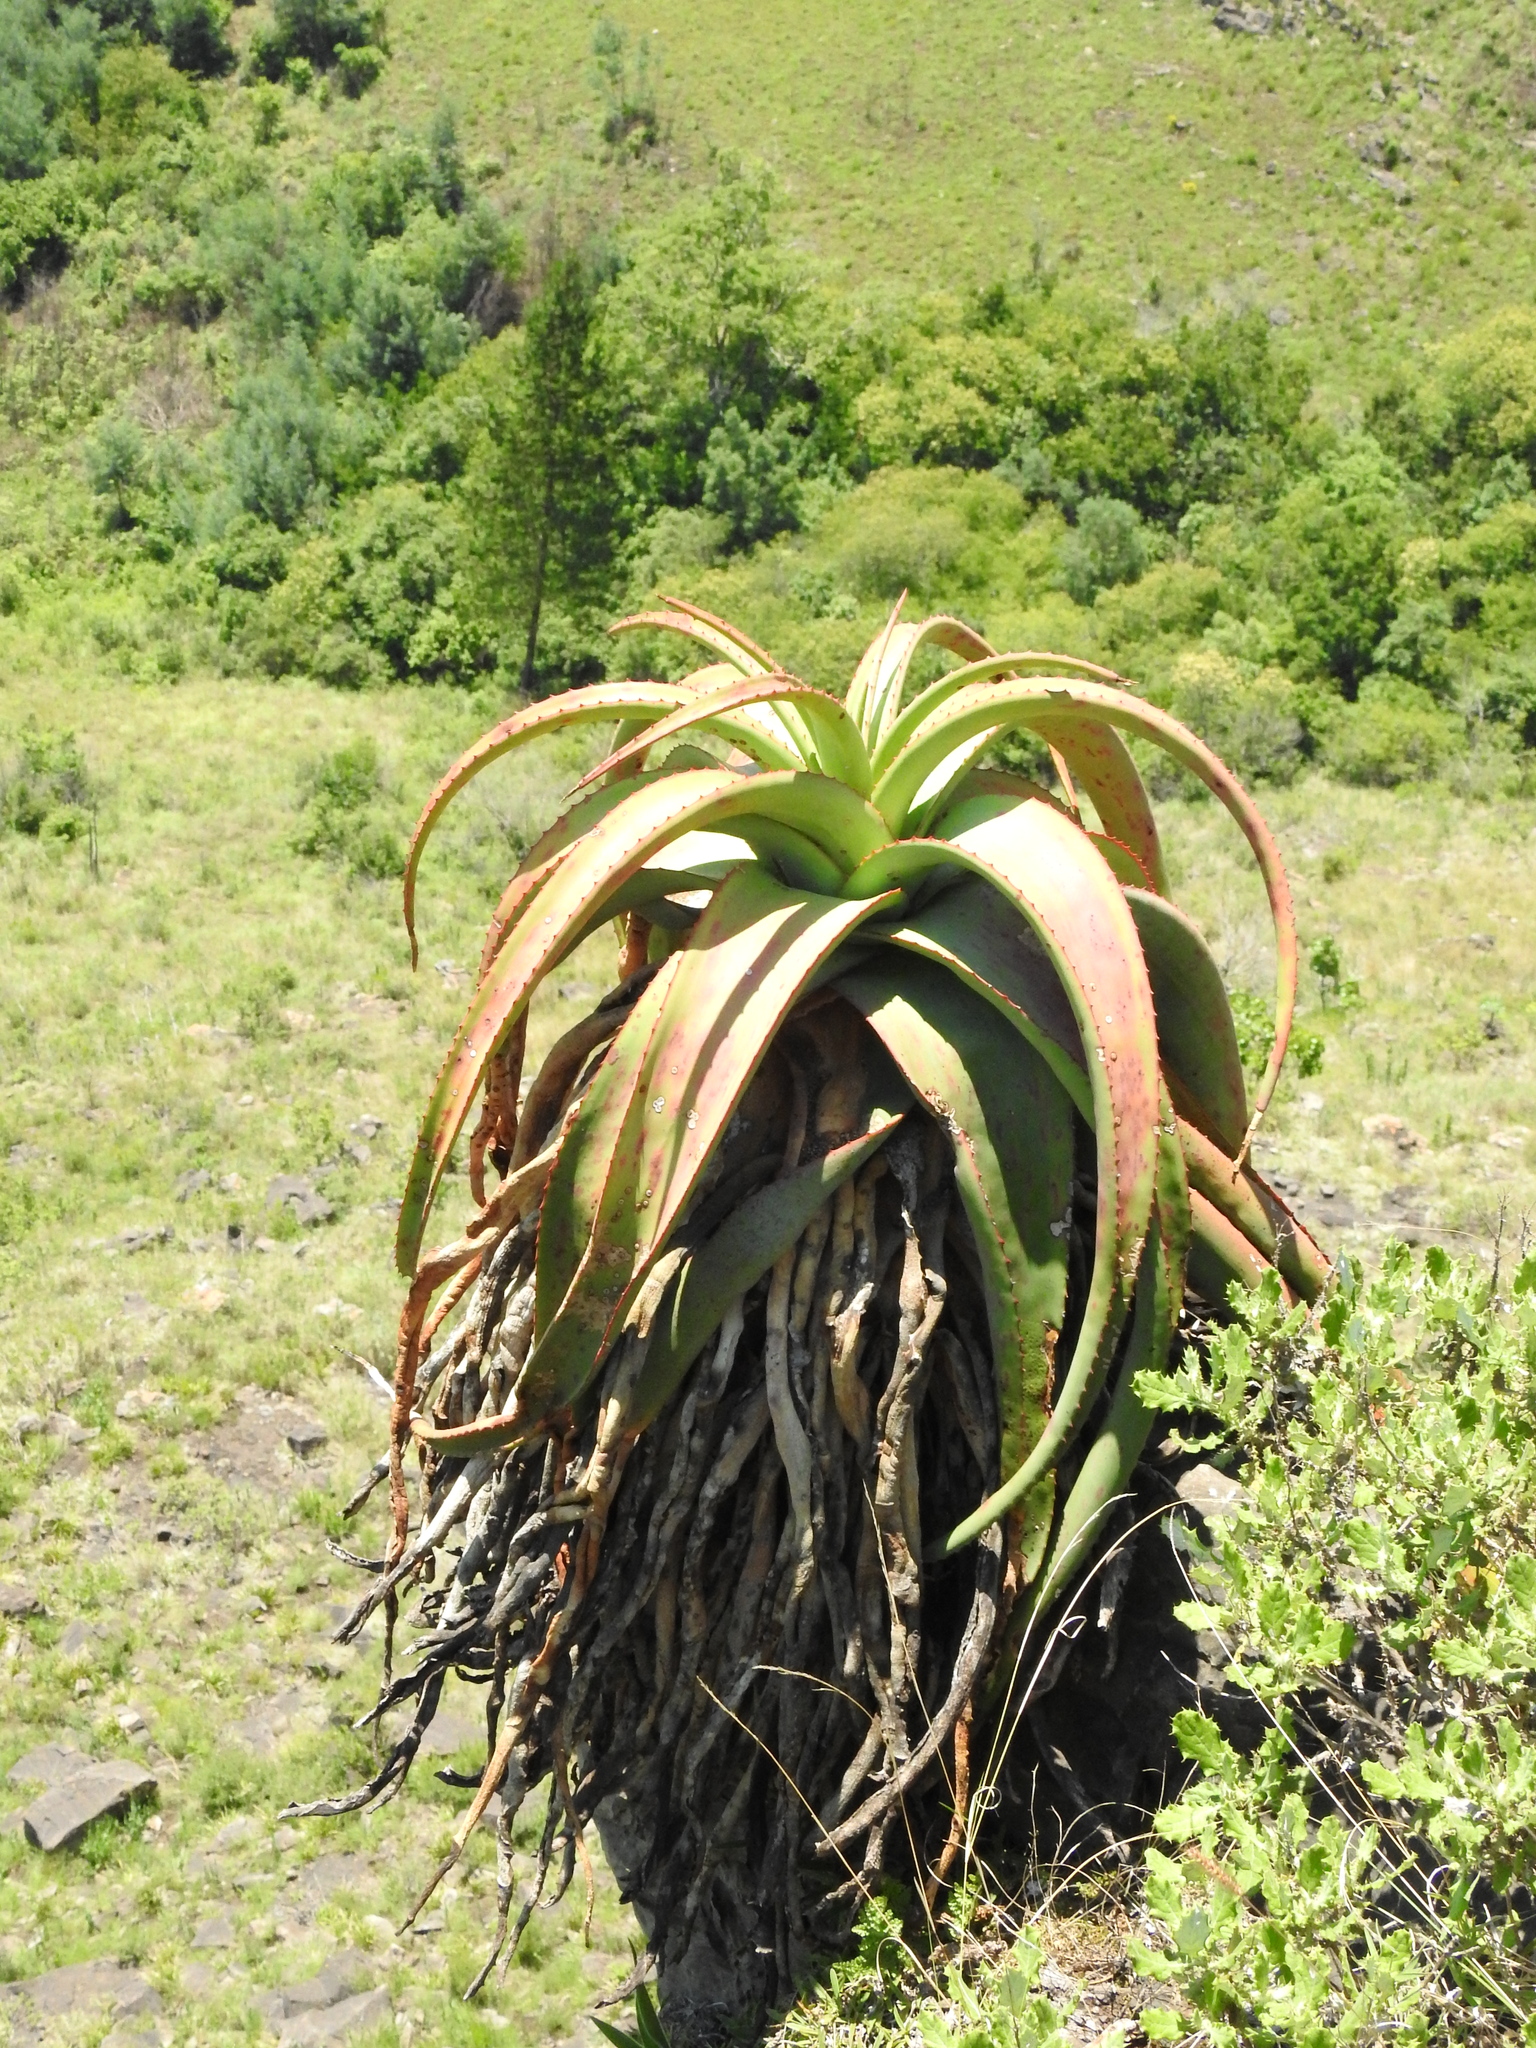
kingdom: Plantae
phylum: Tracheophyta
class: Liliopsida
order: Asparagales
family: Asphodelaceae
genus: Aloe
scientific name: Aloe alooides
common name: Graskop aloe
